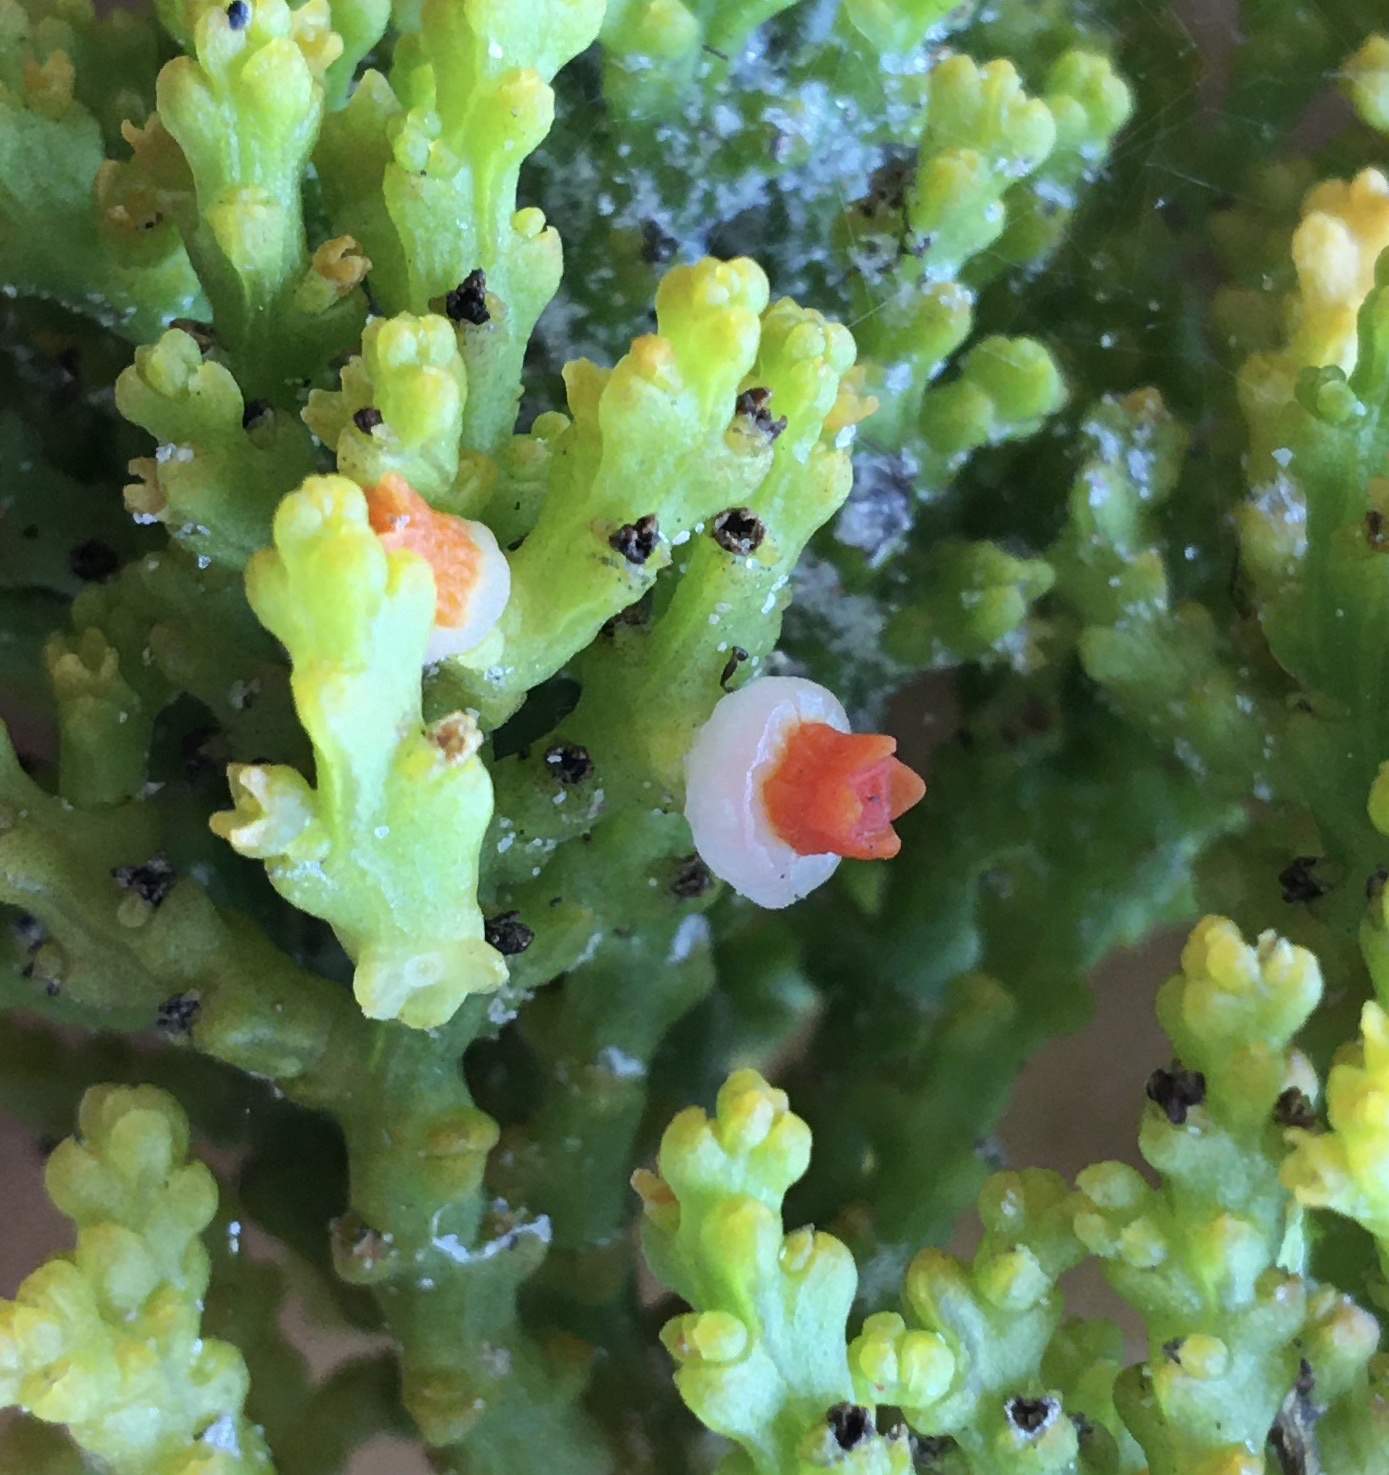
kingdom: Plantae
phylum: Tracheophyta
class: Magnoliopsida
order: Santalales
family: Thesiaceae
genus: Thesium
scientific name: Thesium fragile
